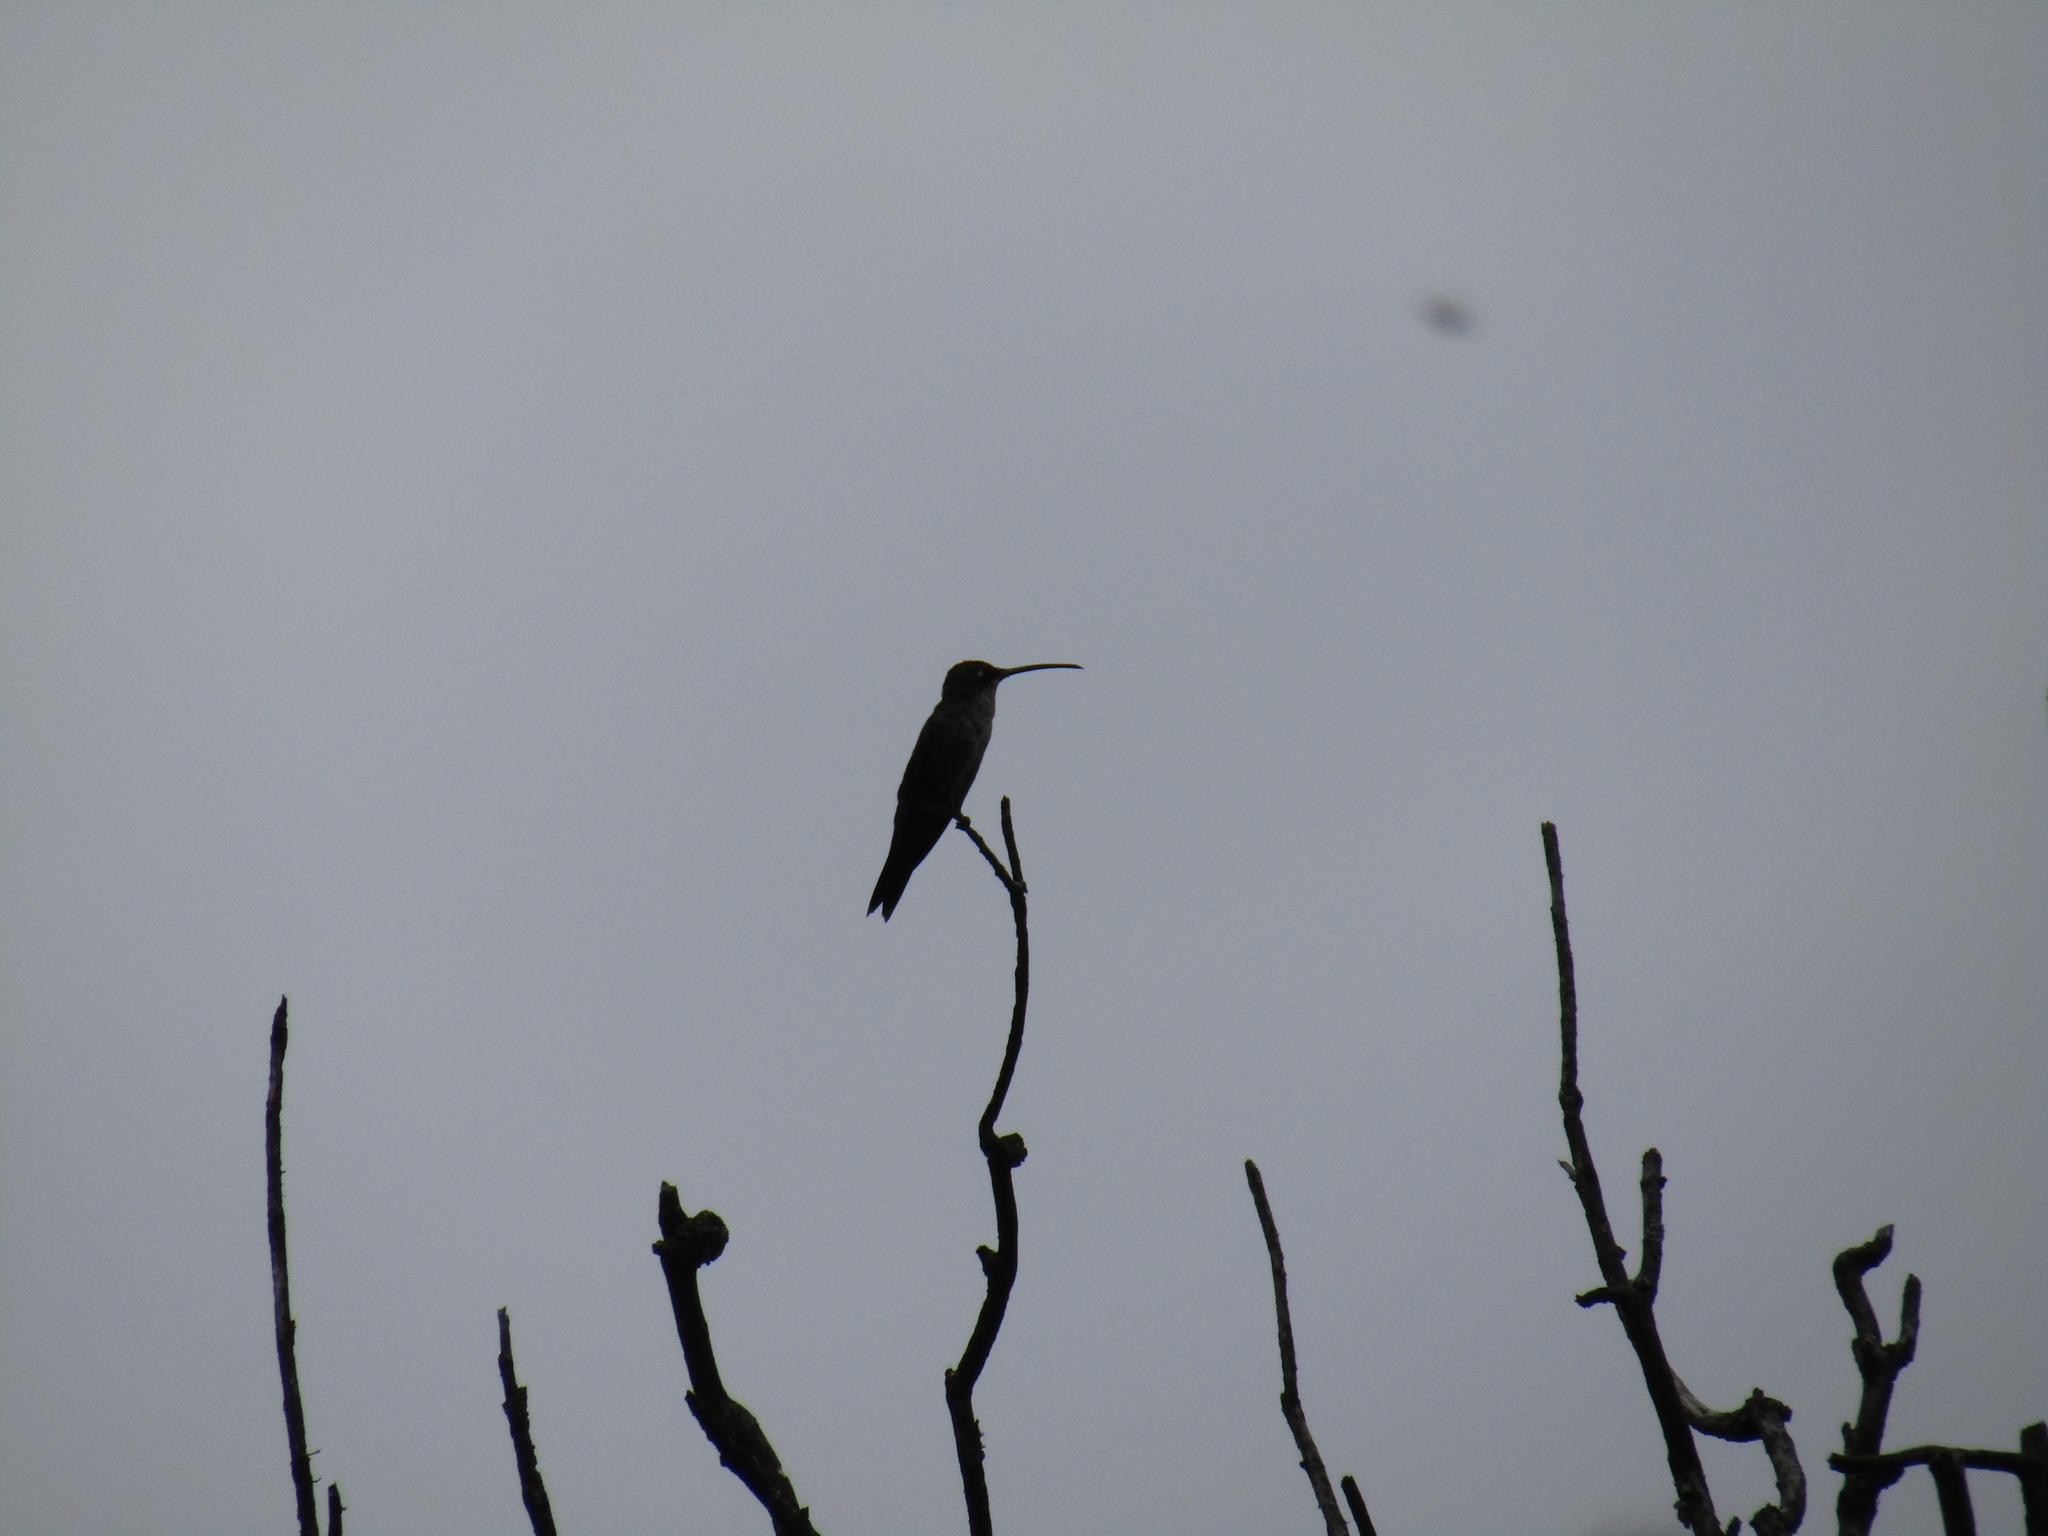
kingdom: Animalia
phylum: Chordata
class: Aves
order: Apodiformes
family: Trochilidae
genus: Heliomaster
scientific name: Heliomaster furcifer
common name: Blue-tufted starthroat
